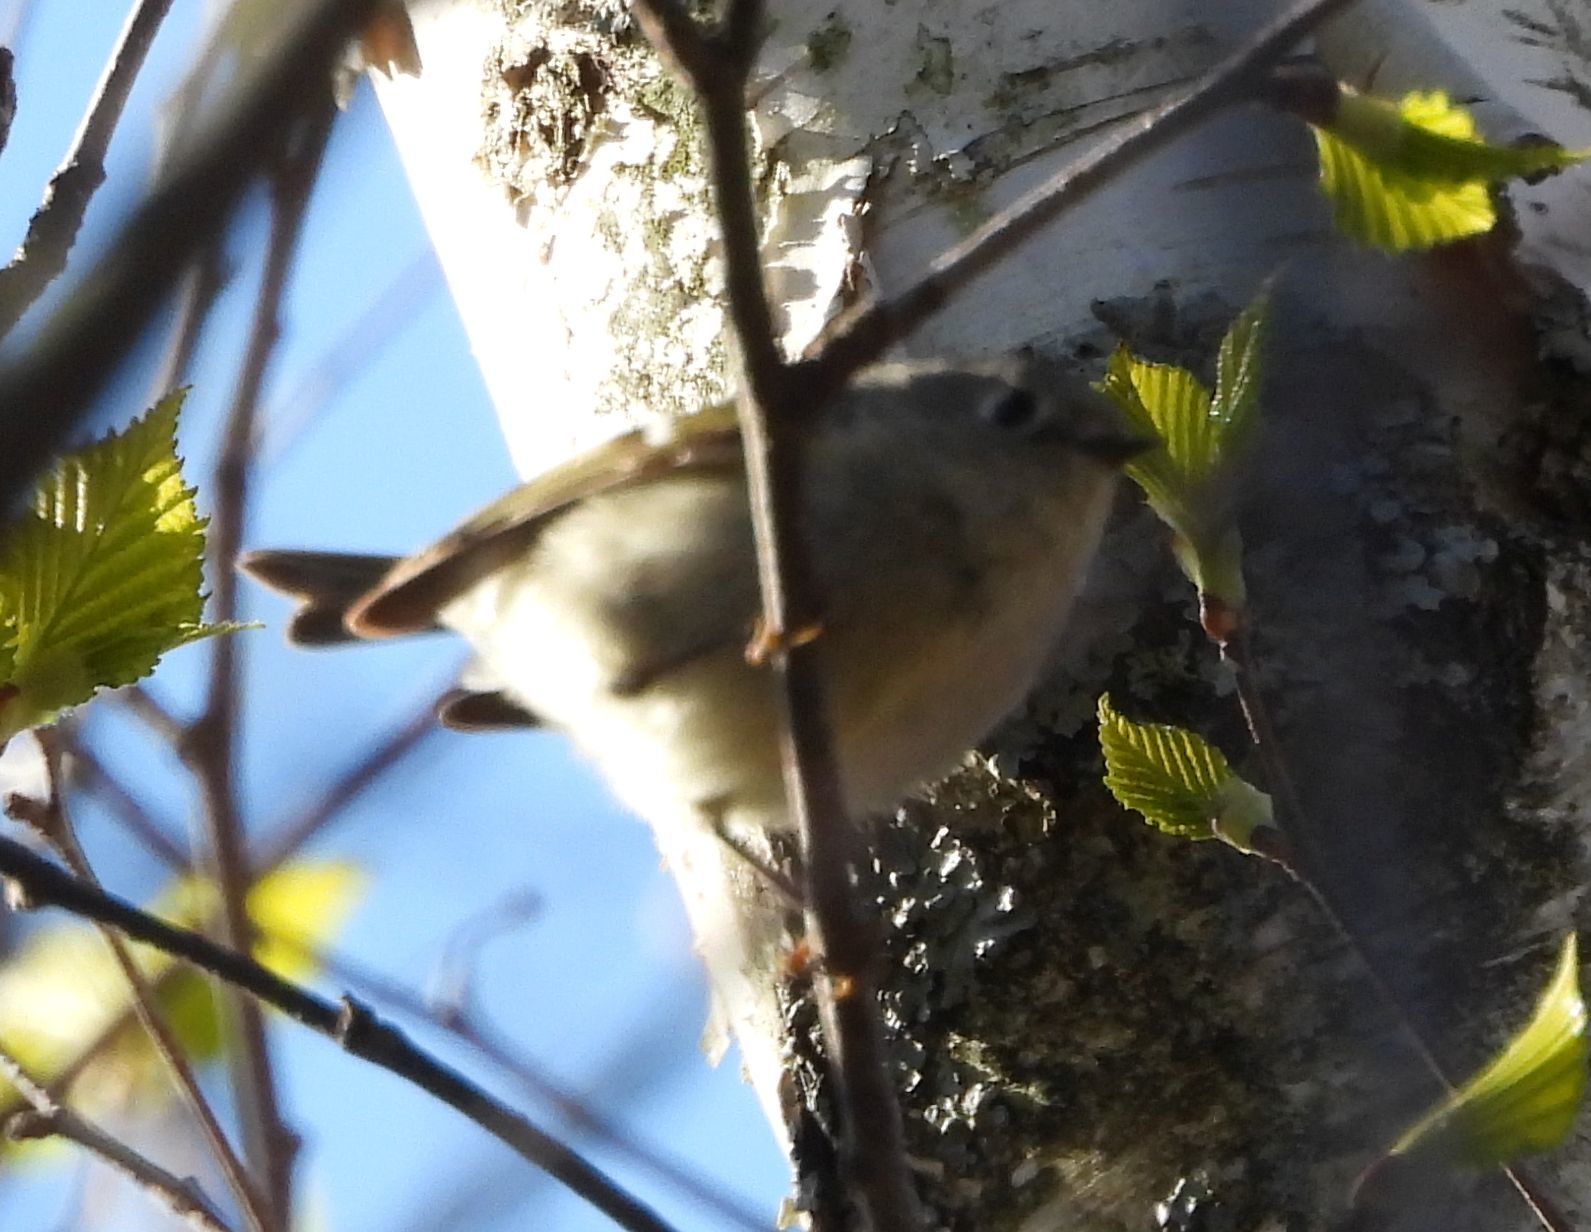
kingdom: Animalia
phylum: Chordata
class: Aves
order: Passeriformes
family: Regulidae
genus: Regulus
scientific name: Regulus calendula
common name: Ruby-crowned kinglet
